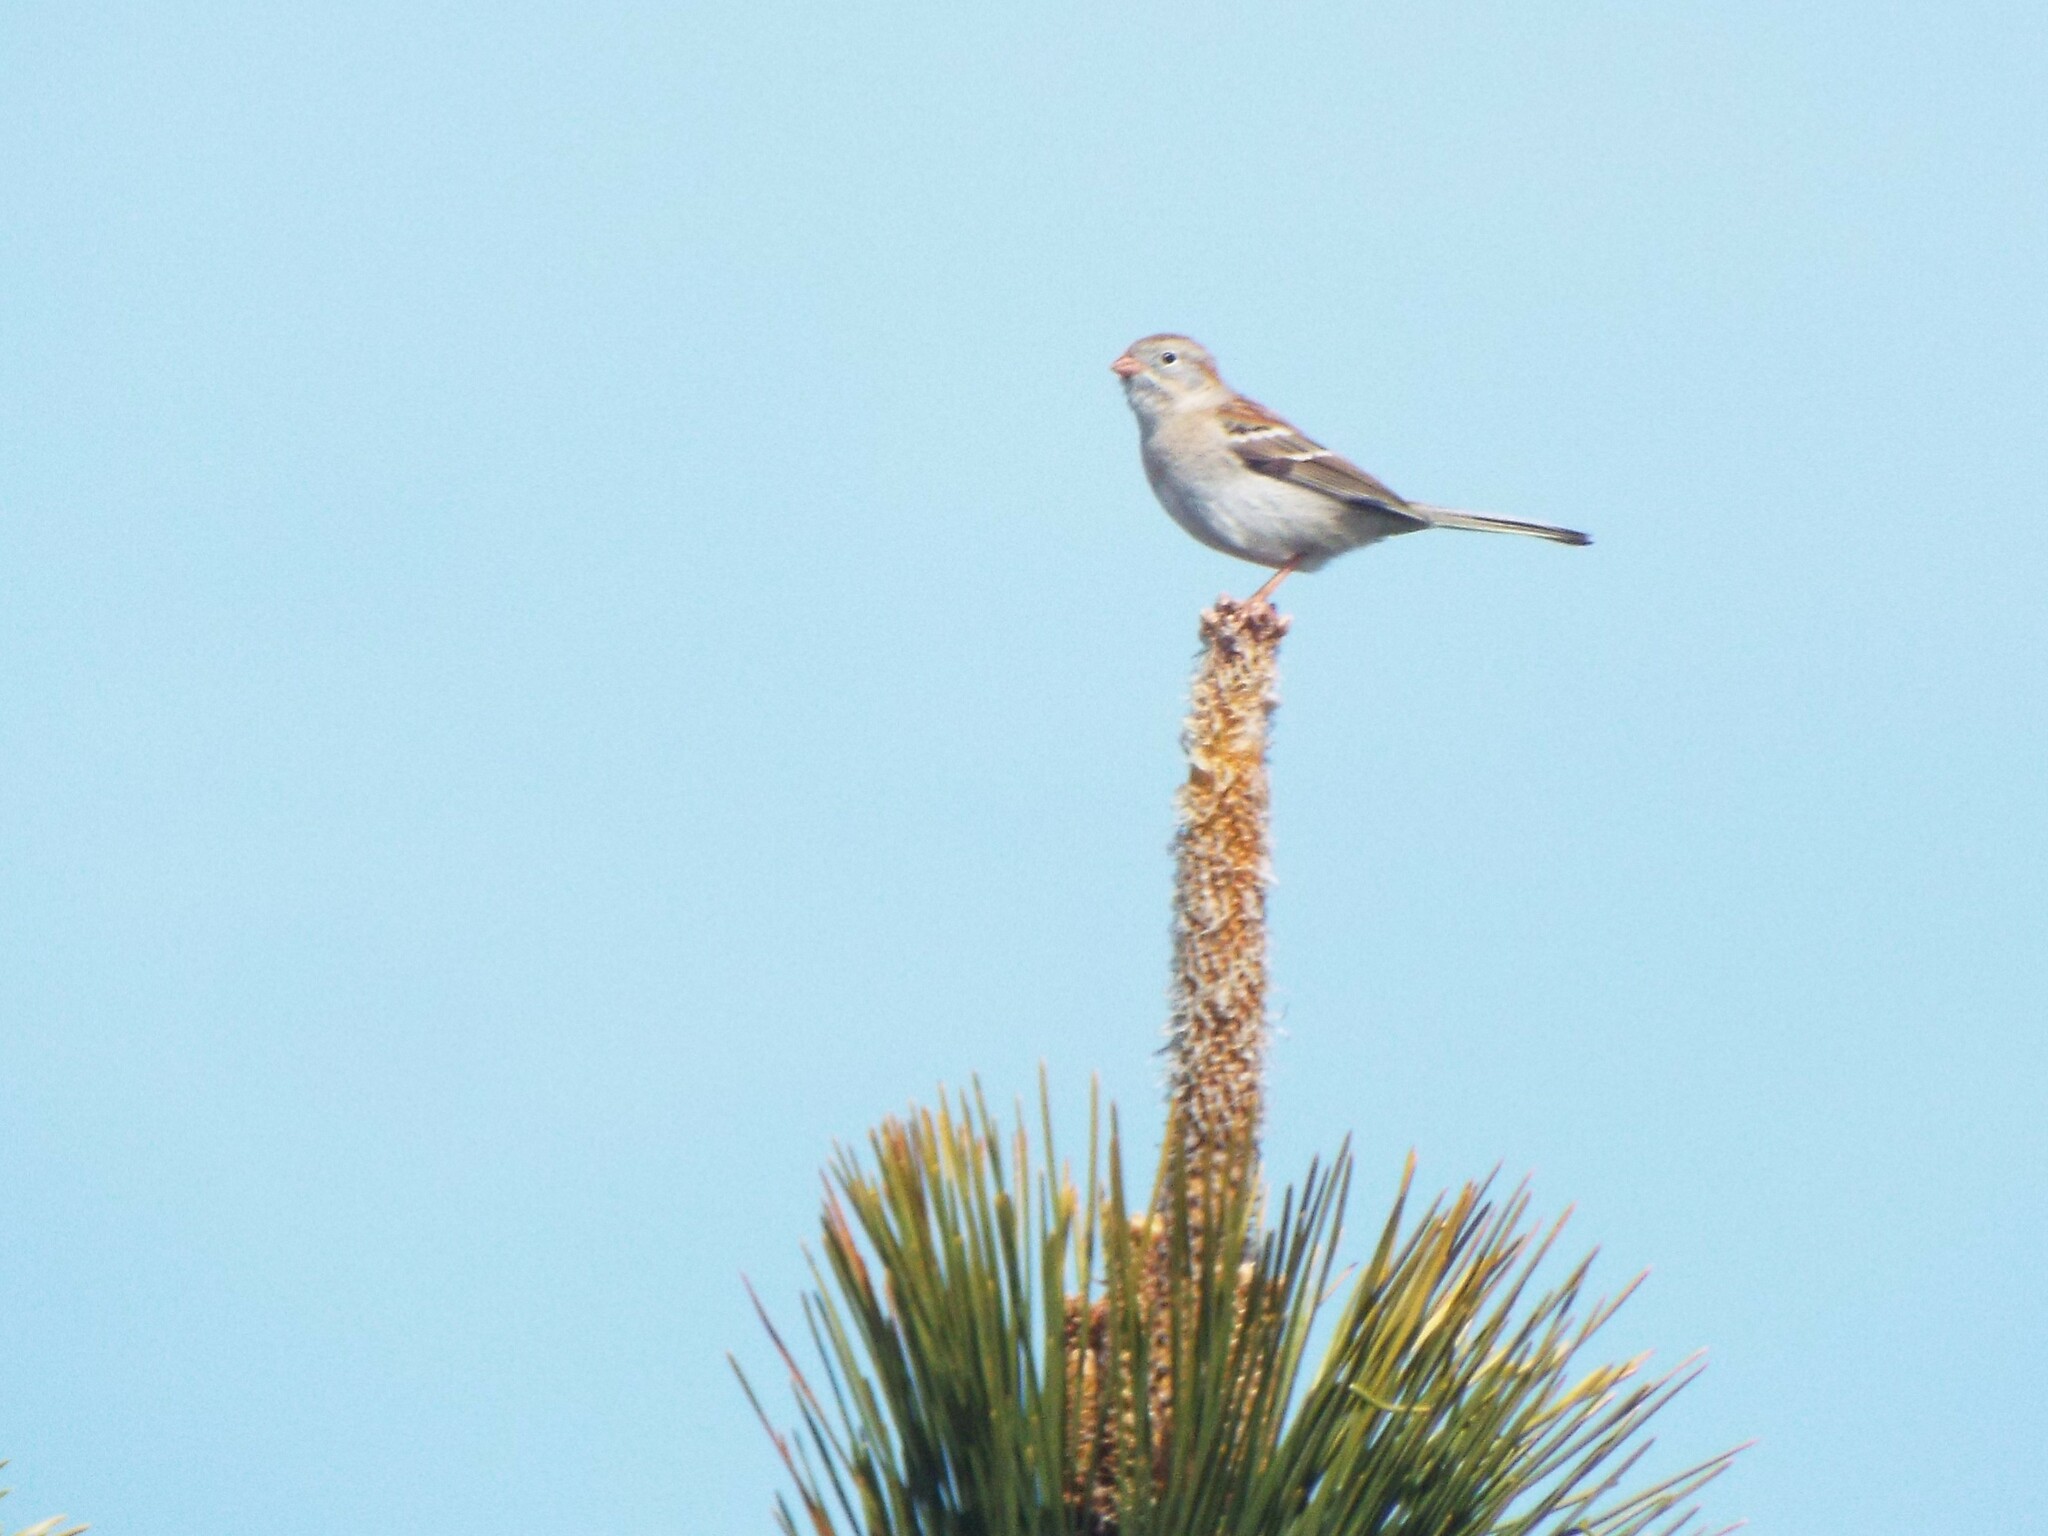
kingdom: Animalia
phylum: Chordata
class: Aves
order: Passeriformes
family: Passerellidae
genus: Spizella
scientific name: Spizella pusilla
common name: Field sparrow
